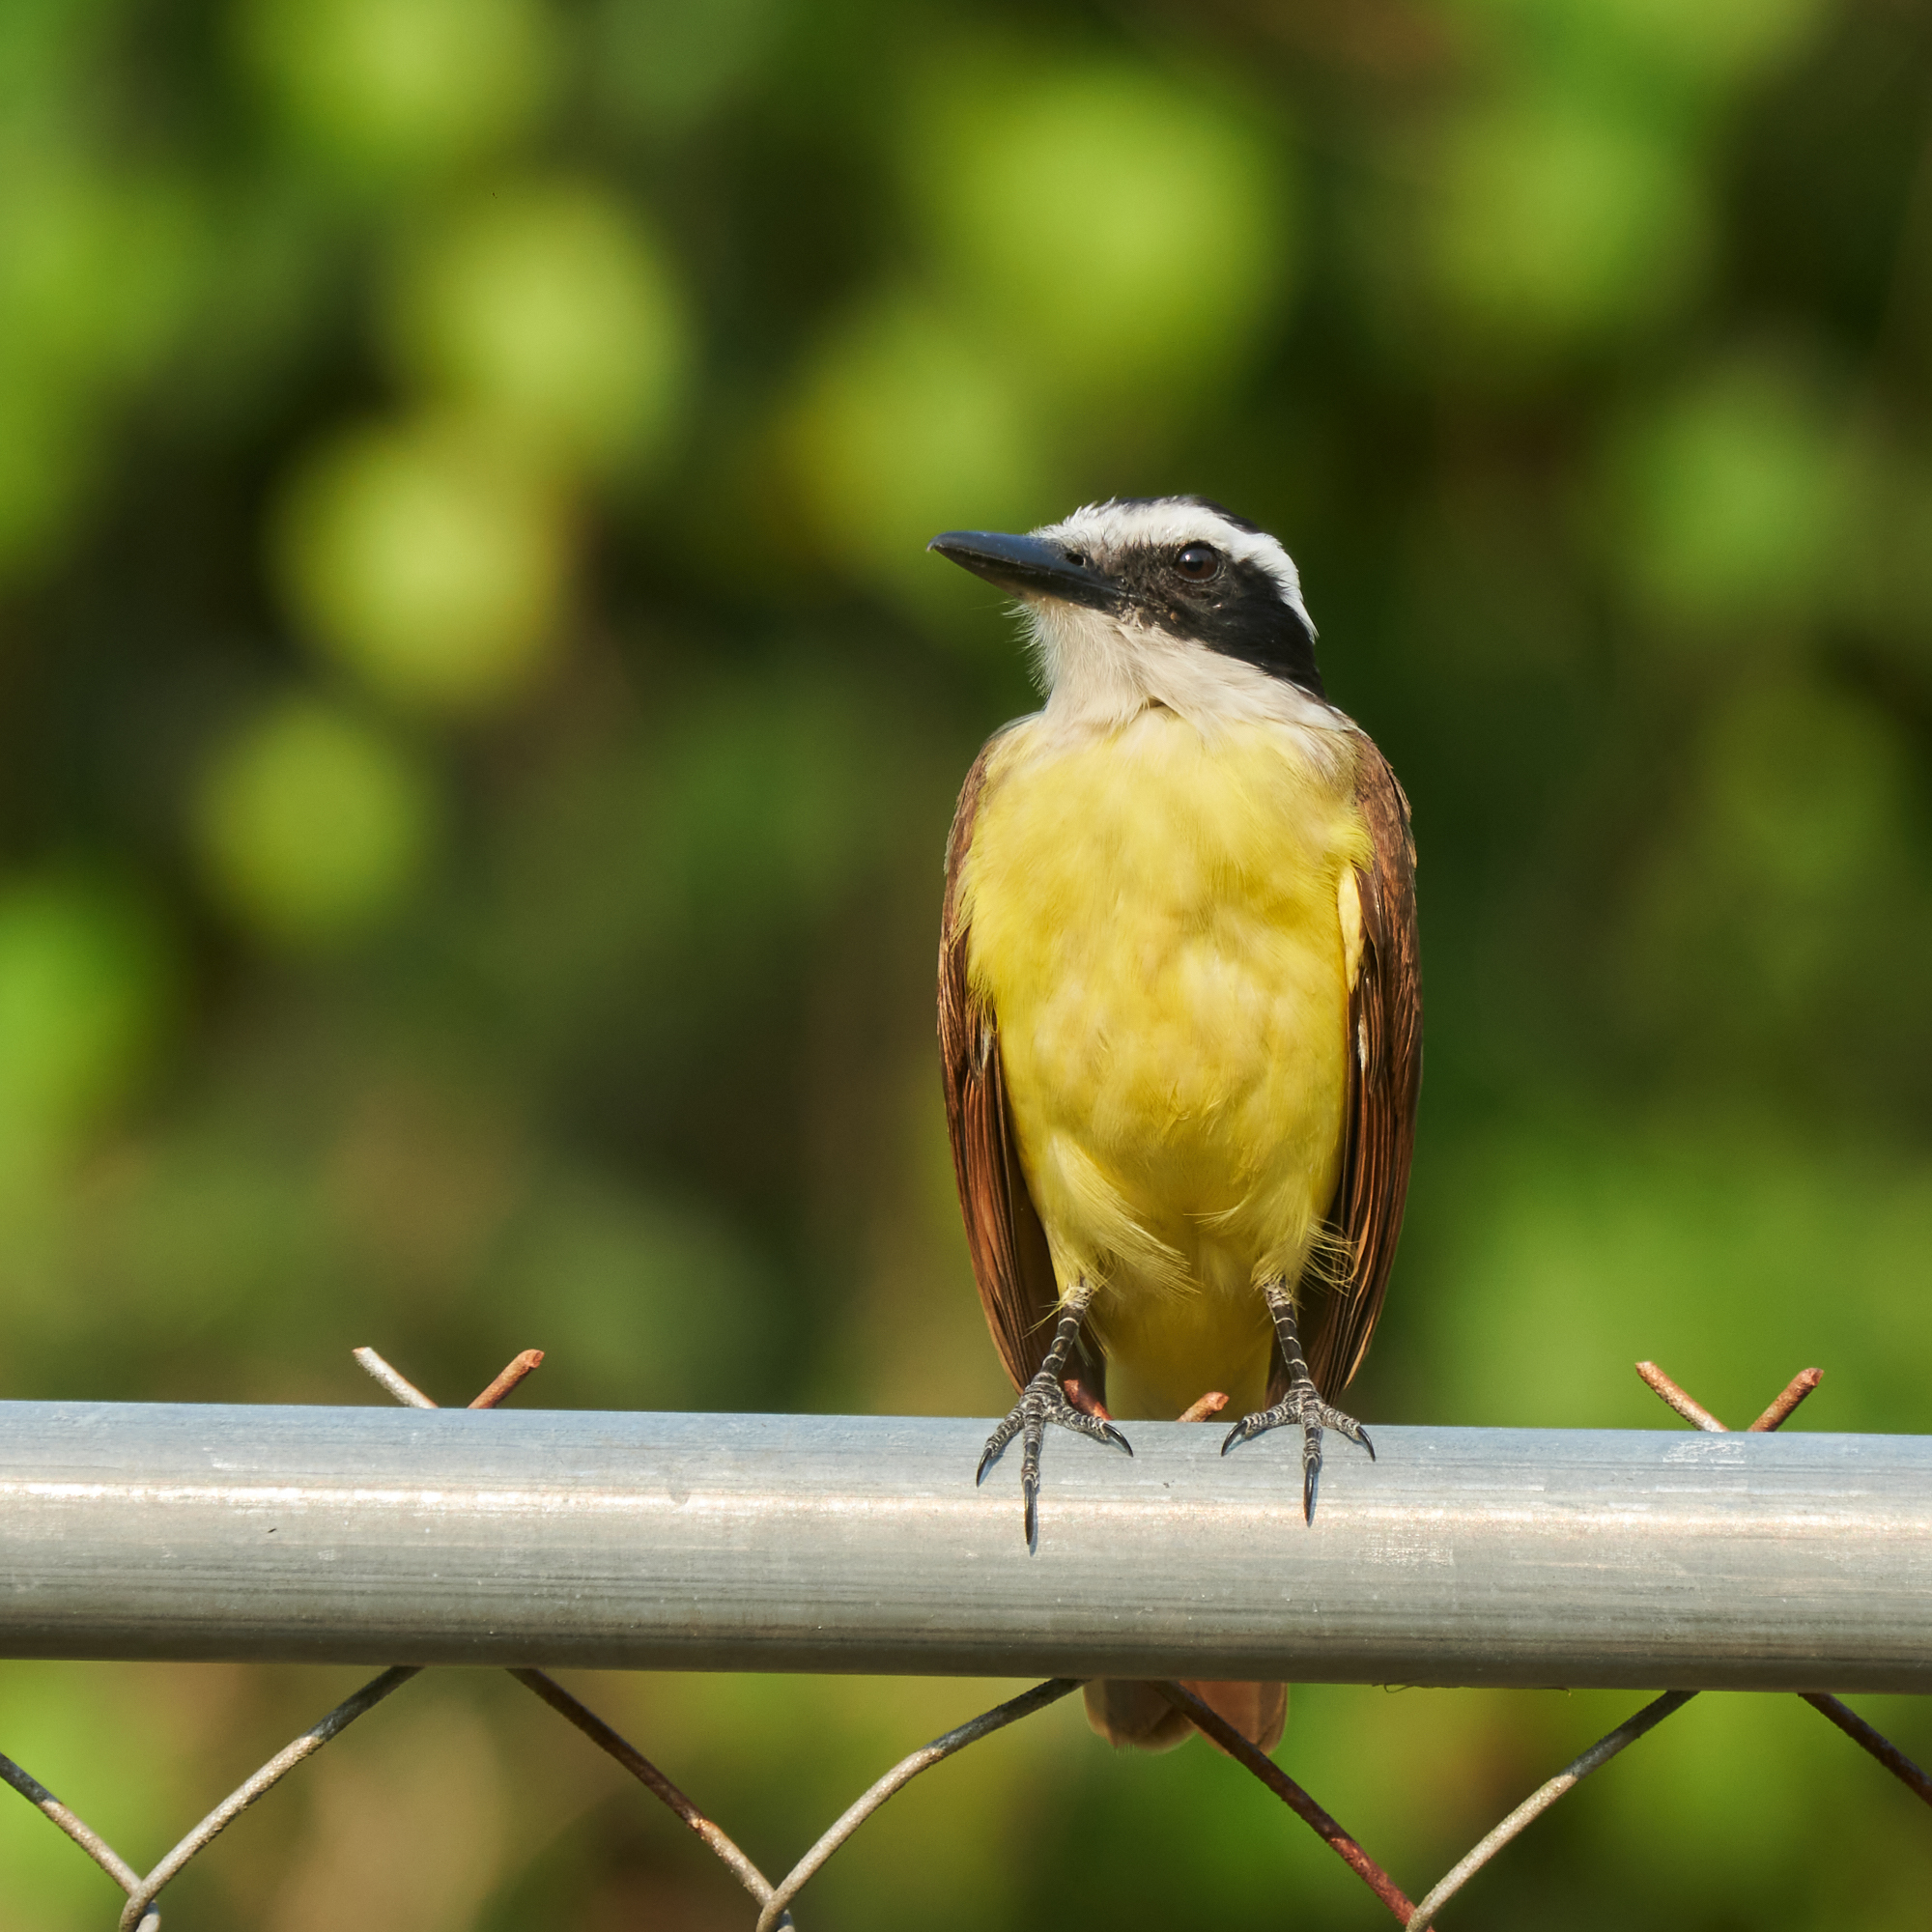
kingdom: Animalia
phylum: Chordata
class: Aves
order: Passeriformes
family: Tyrannidae
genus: Pitangus
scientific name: Pitangus sulphuratus
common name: Great kiskadee
